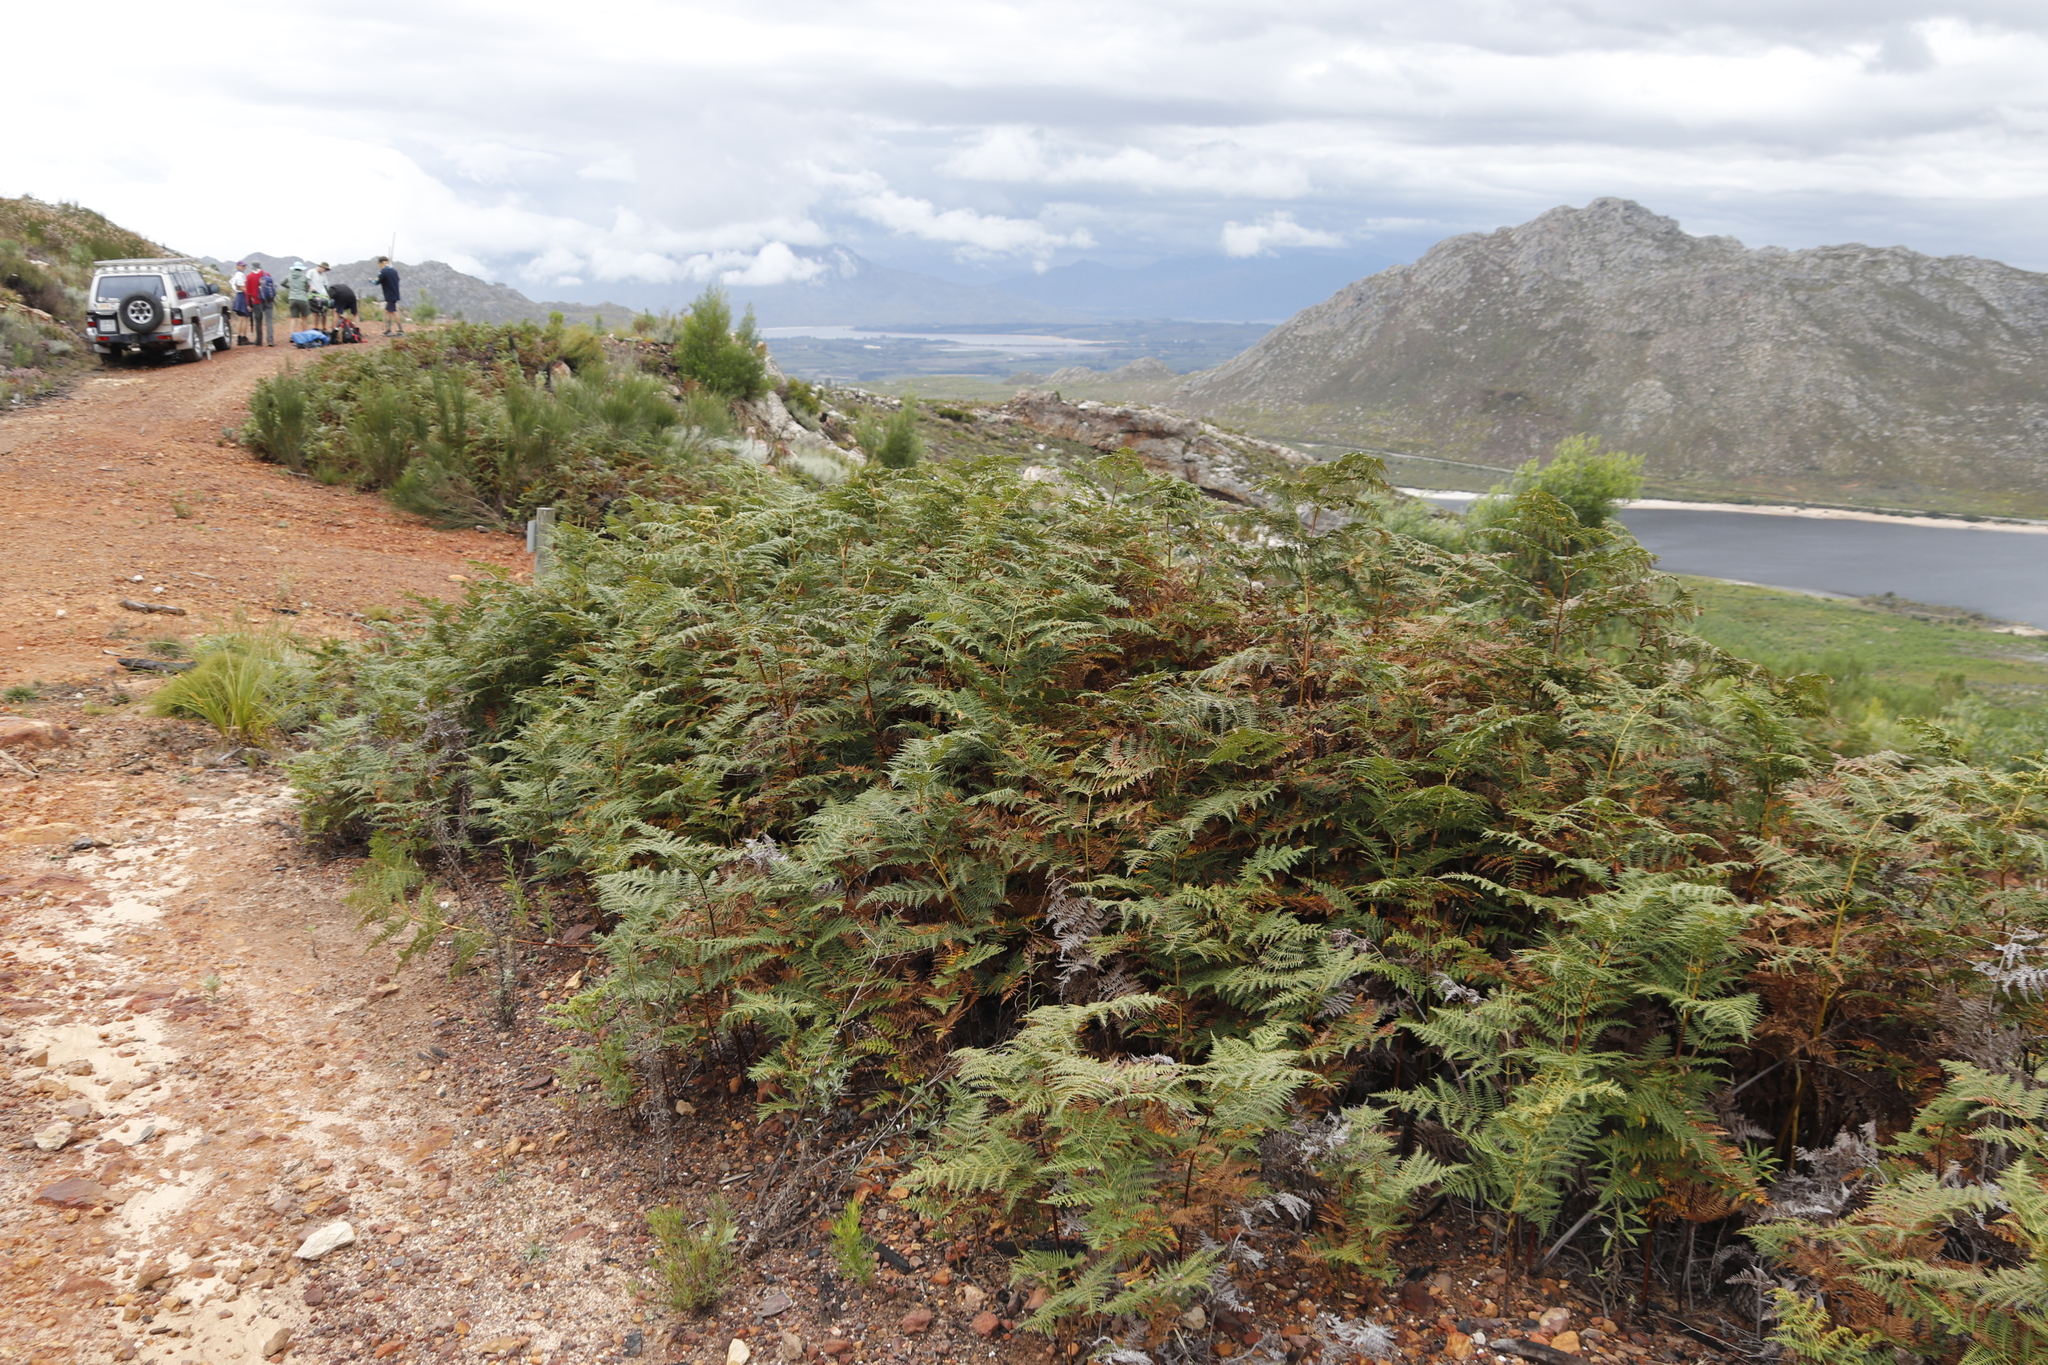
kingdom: Plantae
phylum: Tracheophyta
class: Polypodiopsida
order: Polypodiales
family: Dennstaedtiaceae
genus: Pteridium
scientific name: Pteridium aquilinum
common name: Bracken
